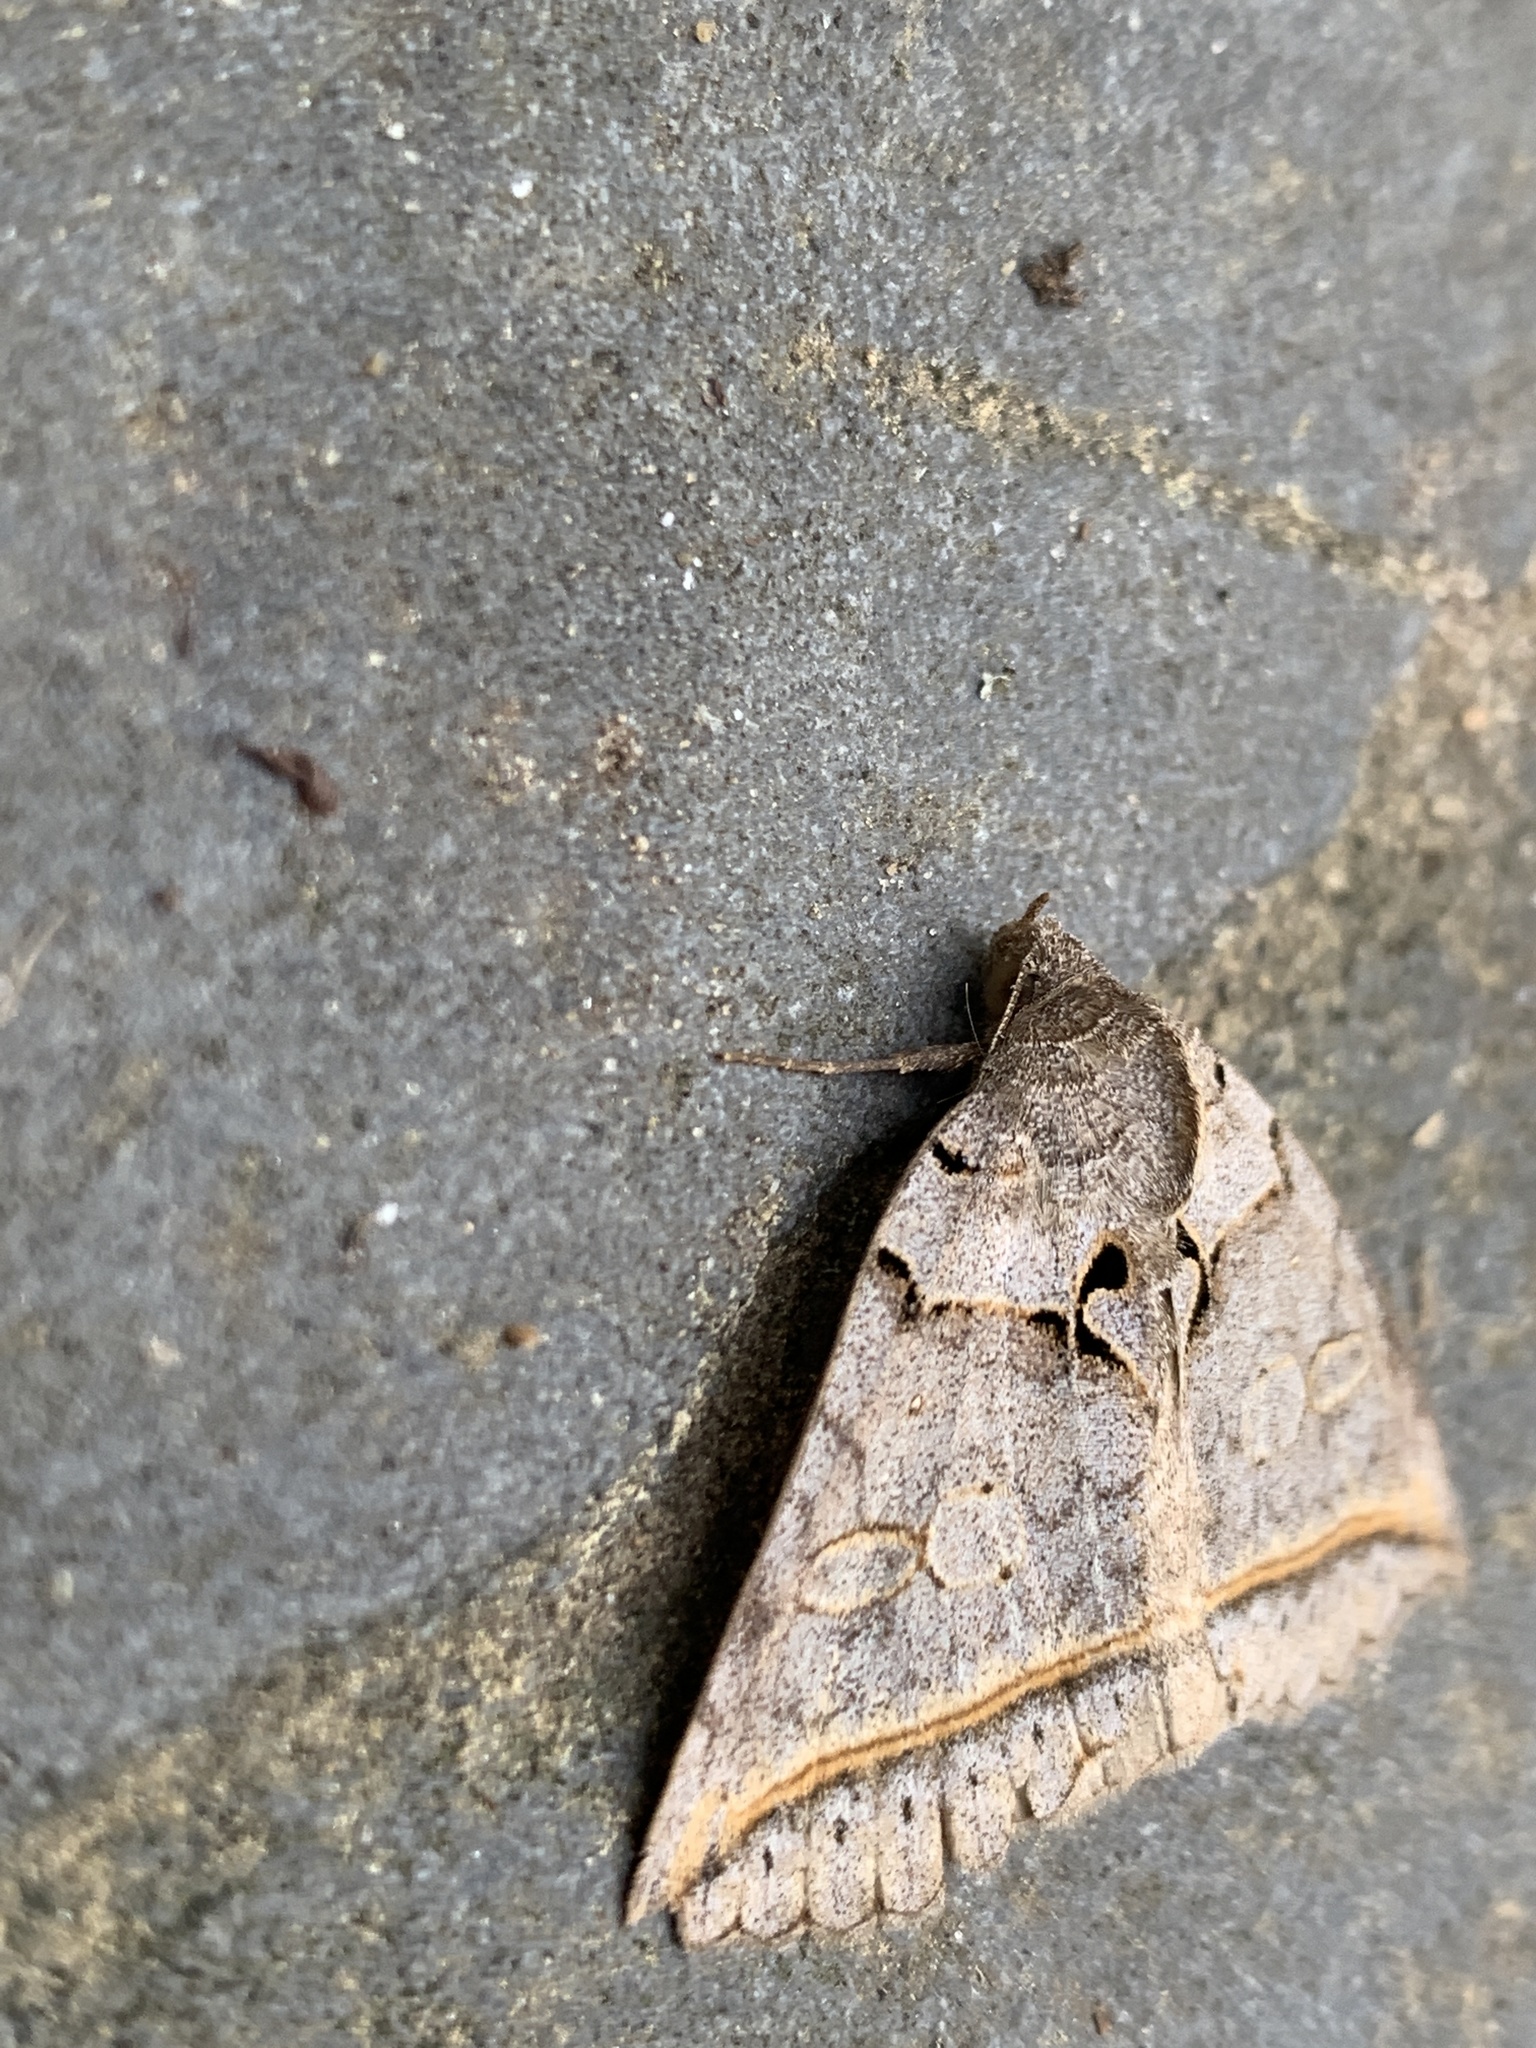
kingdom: Animalia
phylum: Arthropoda
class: Insecta
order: Lepidoptera
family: Erebidae
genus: Celiptera
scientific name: Celiptera frustulum
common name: Black bit moth
